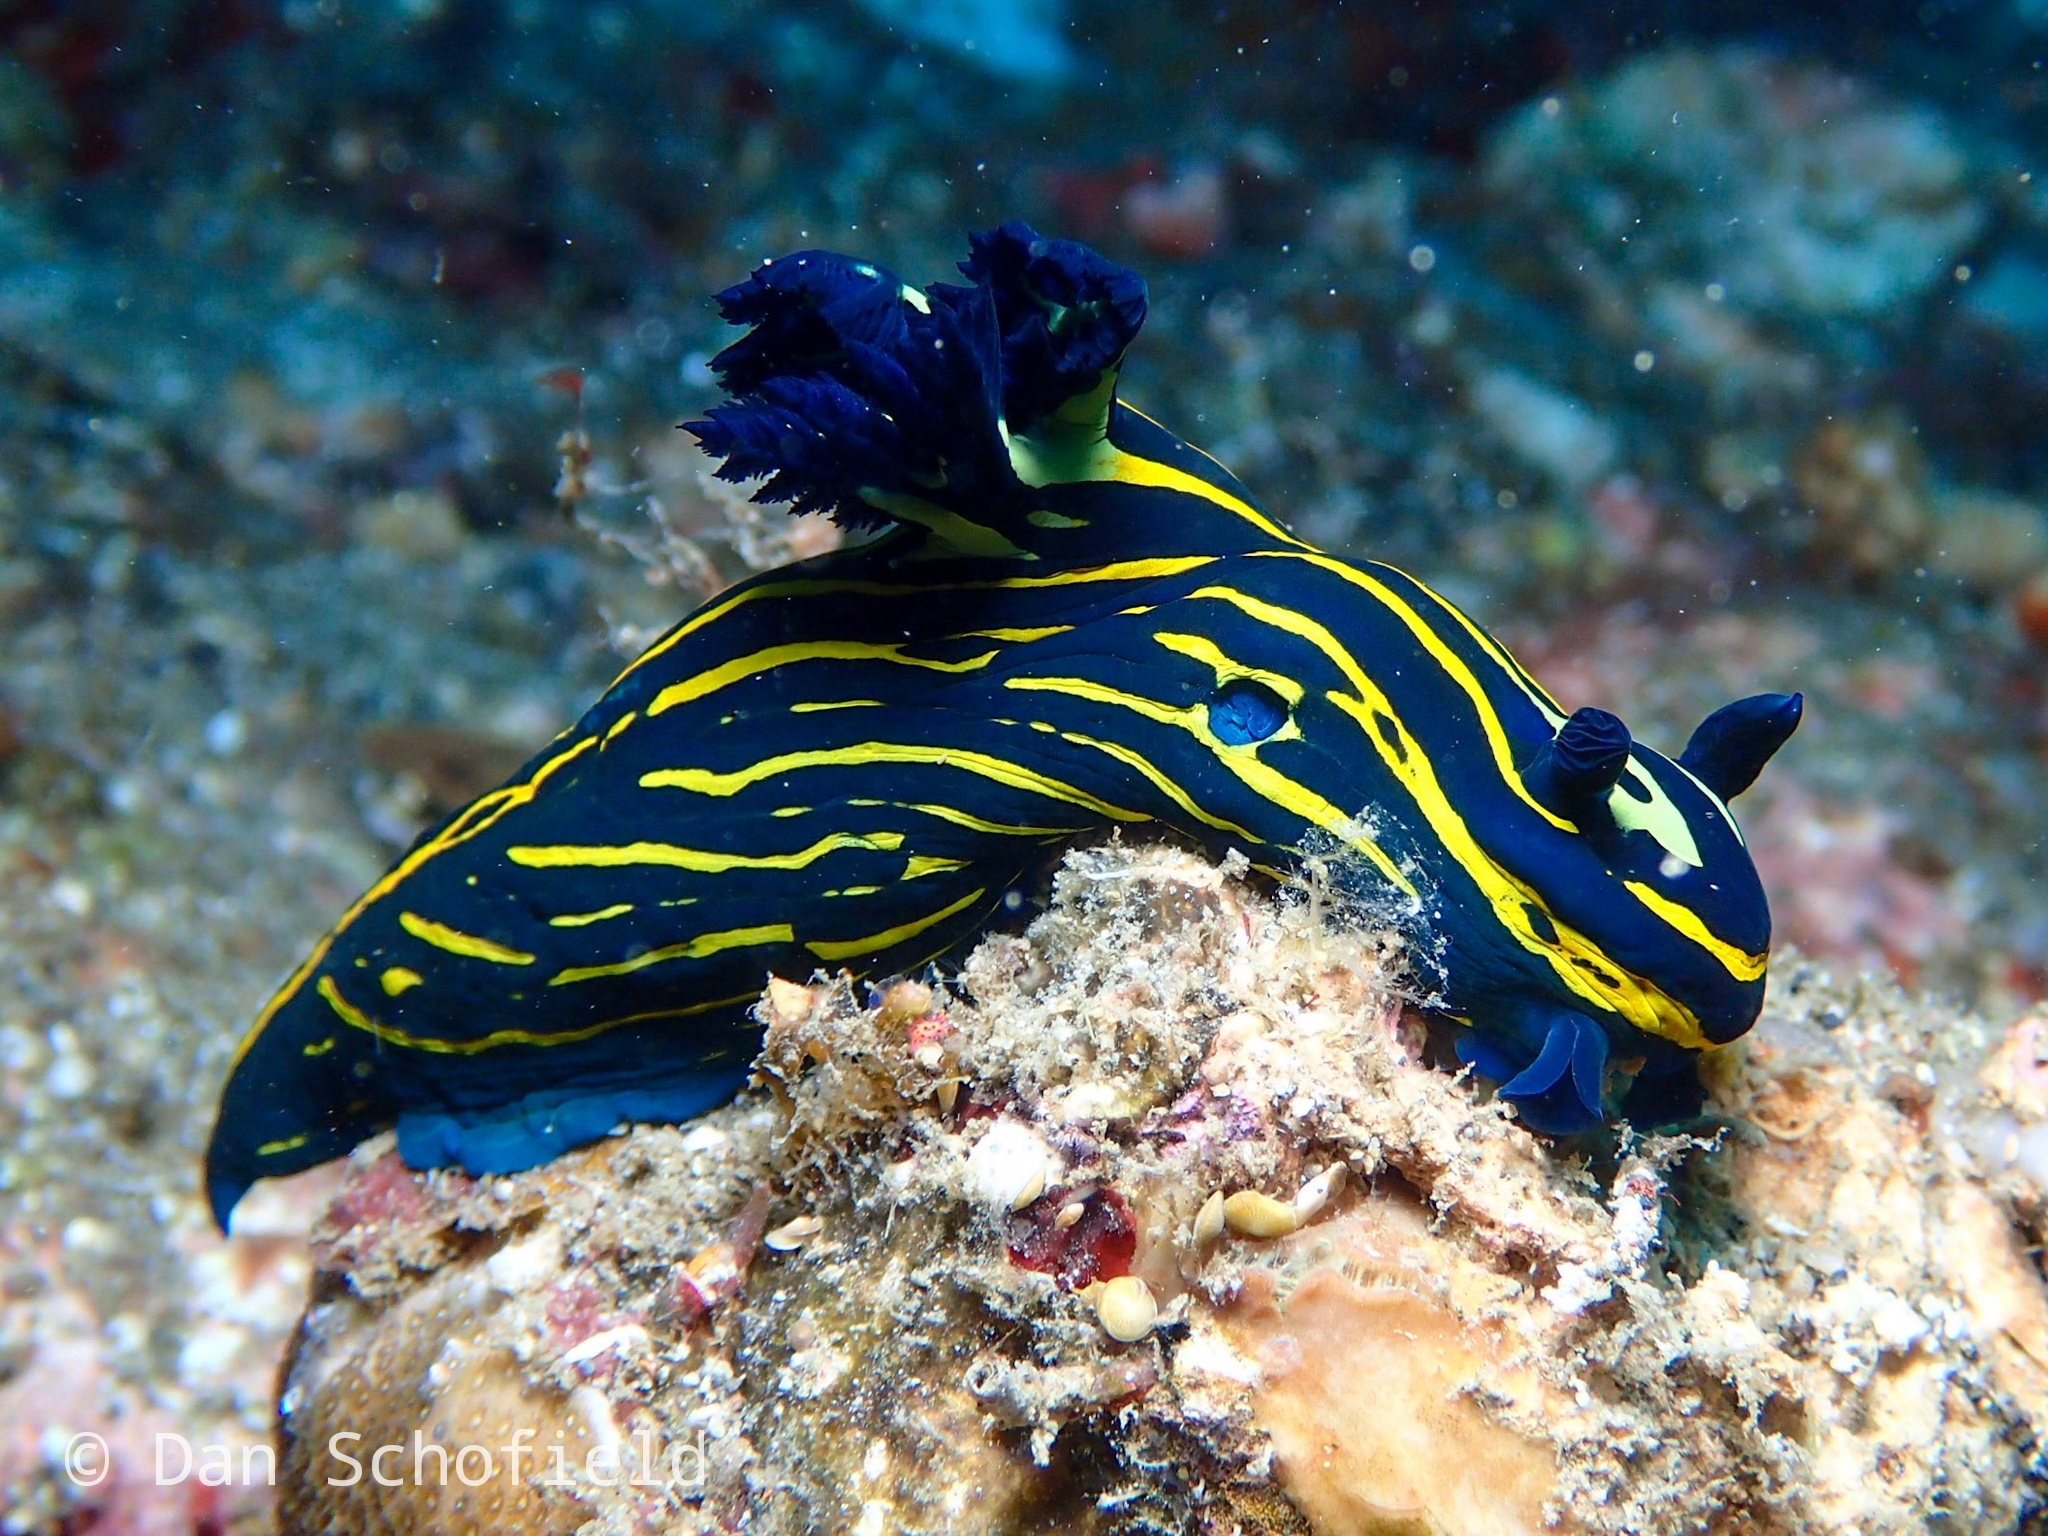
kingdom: Animalia
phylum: Mollusca
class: Gastropoda
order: Nudibranchia
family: Polyceridae
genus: Tyrannodoris
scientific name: Tyrannodoris luteolineata
